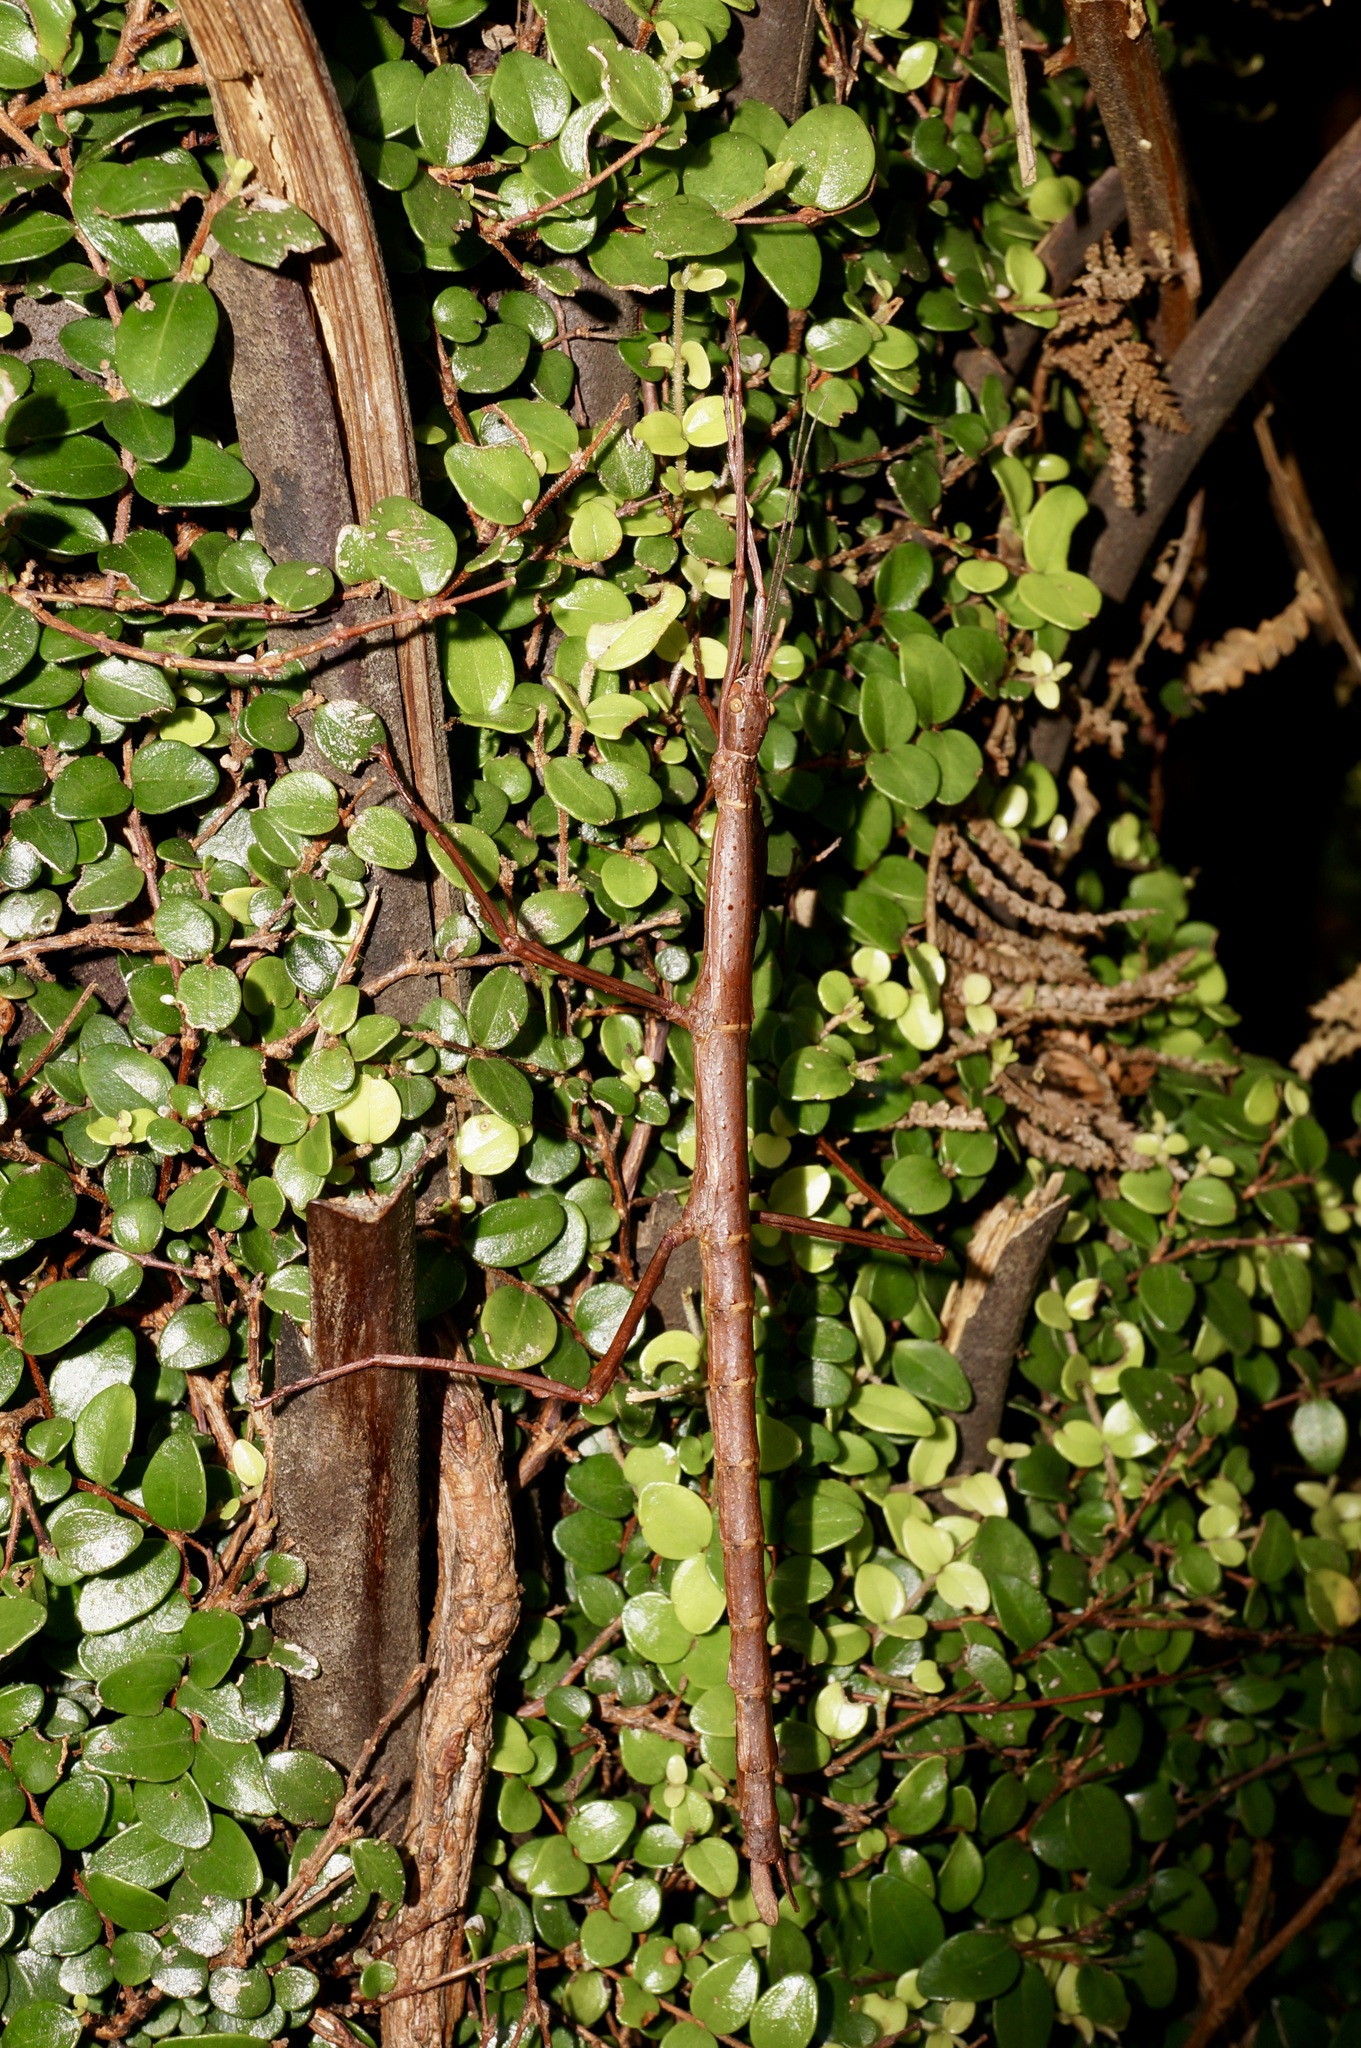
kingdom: Animalia
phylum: Arthropoda
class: Insecta
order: Phasmida
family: Phasmatidae
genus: Acanthoxyla
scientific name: Acanthoxyla inermis
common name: Unarmed stick insect
